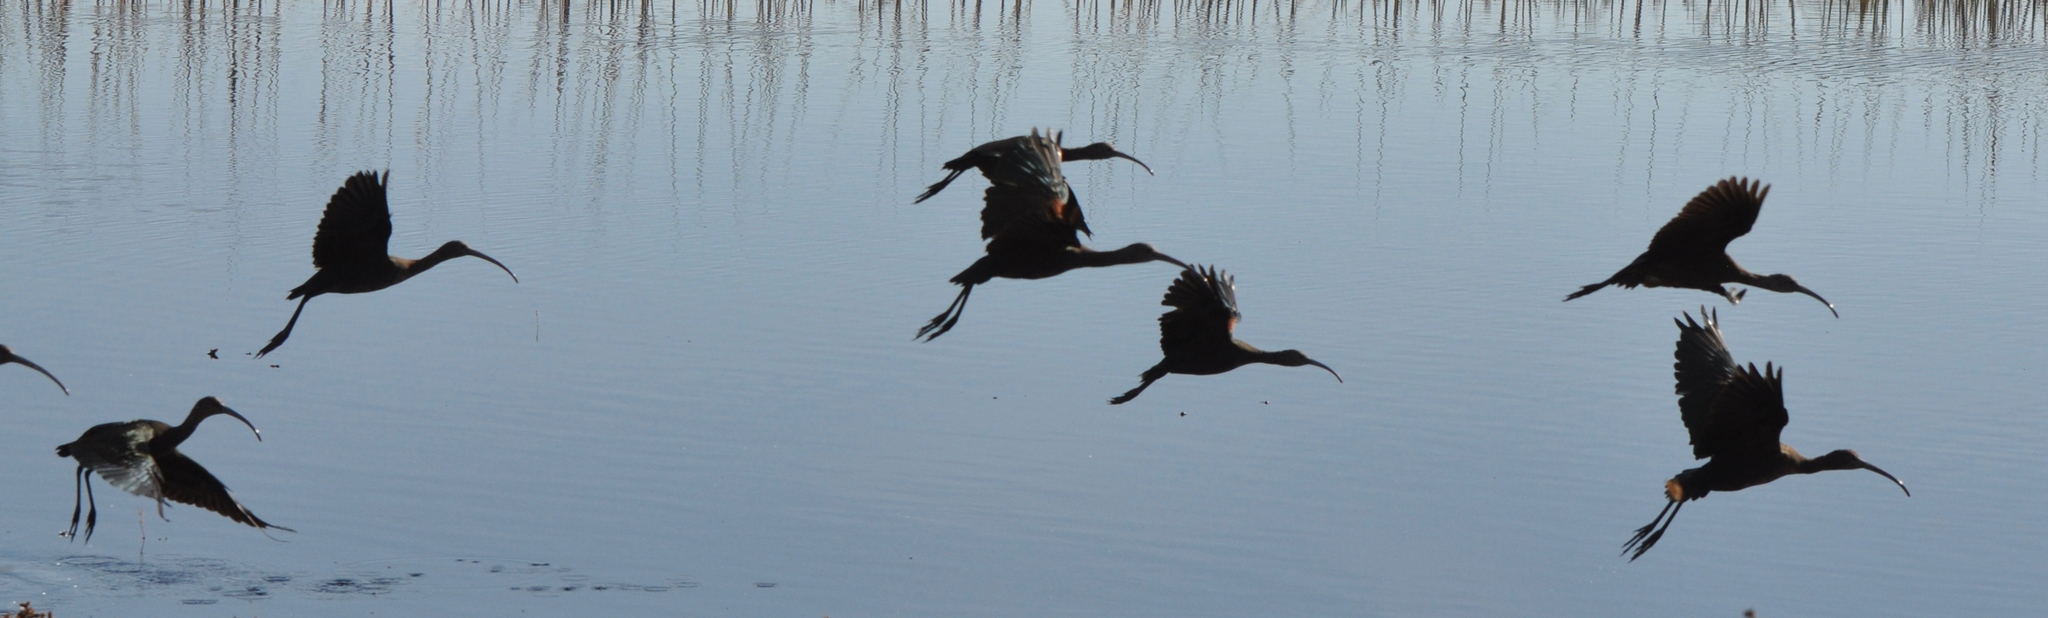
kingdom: Animalia
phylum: Chordata
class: Aves
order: Pelecaniformes
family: Threskiornithidae
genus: Plegadis
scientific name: Plegadis chihi
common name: White-faced ibis
